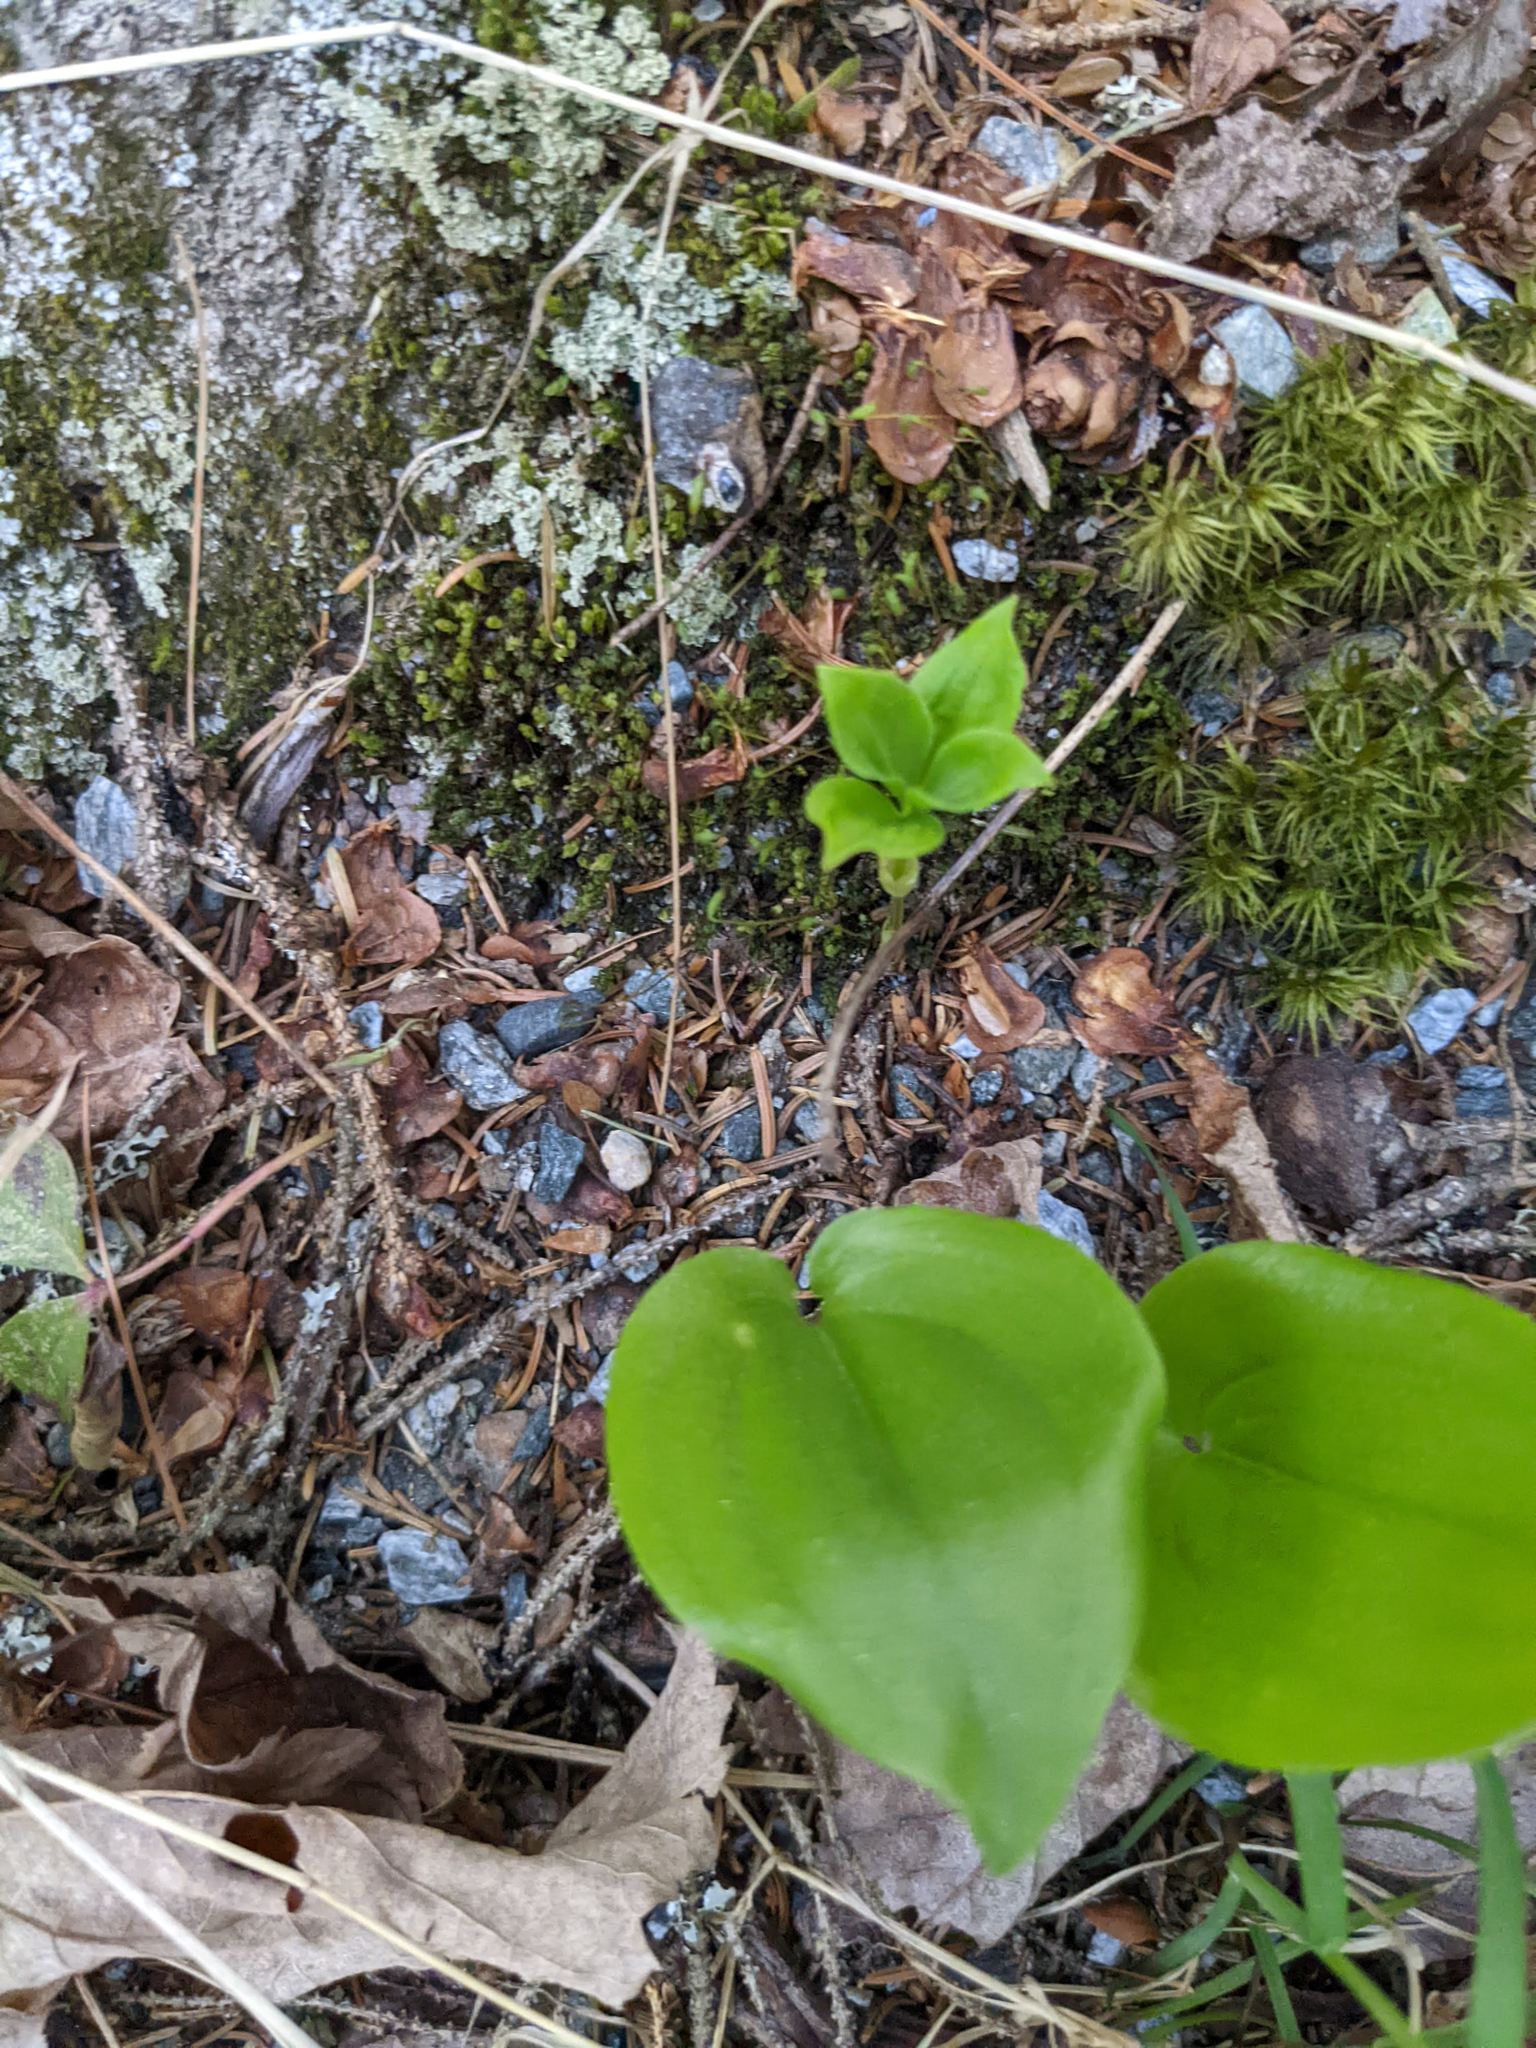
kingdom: Plantae
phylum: Tracheophyta
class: Liliopsida
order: Asparagales
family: Asparagaceae
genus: Maianthemum
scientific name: Maianthemum canadense
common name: False lily-of-the-valley
